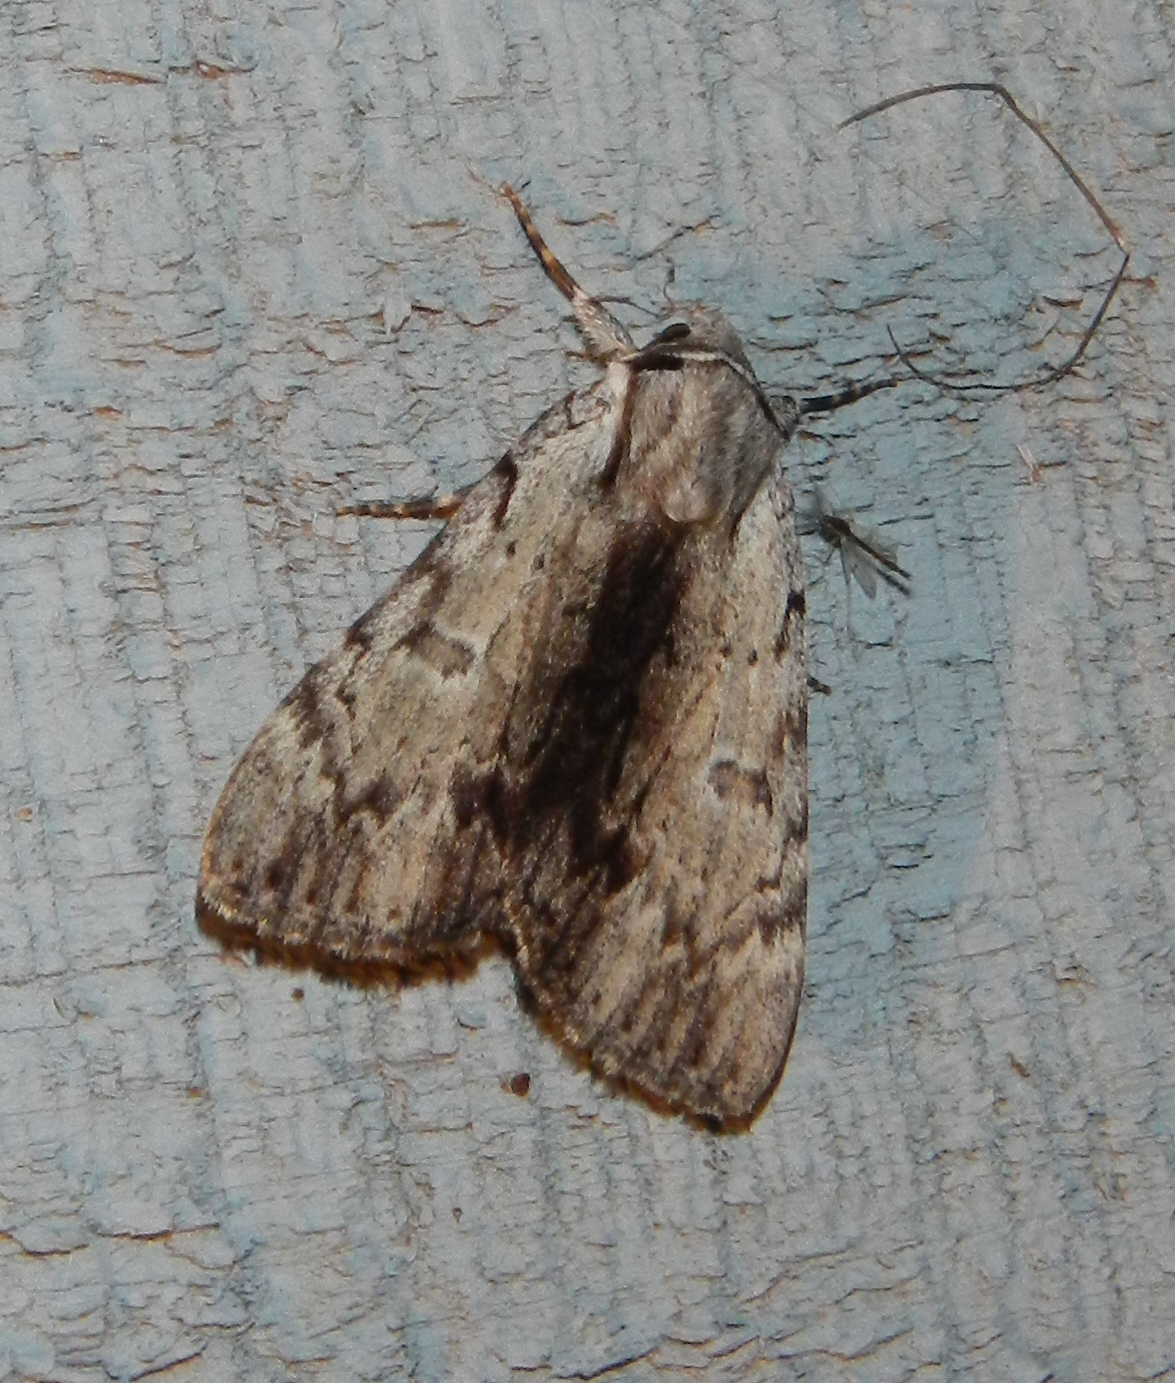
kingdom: Animalia
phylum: Arthropoda
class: Insecta
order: Lepidoptera
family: Erebidae
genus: Catocala
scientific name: Catocala gracilis
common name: Graceful underwing
